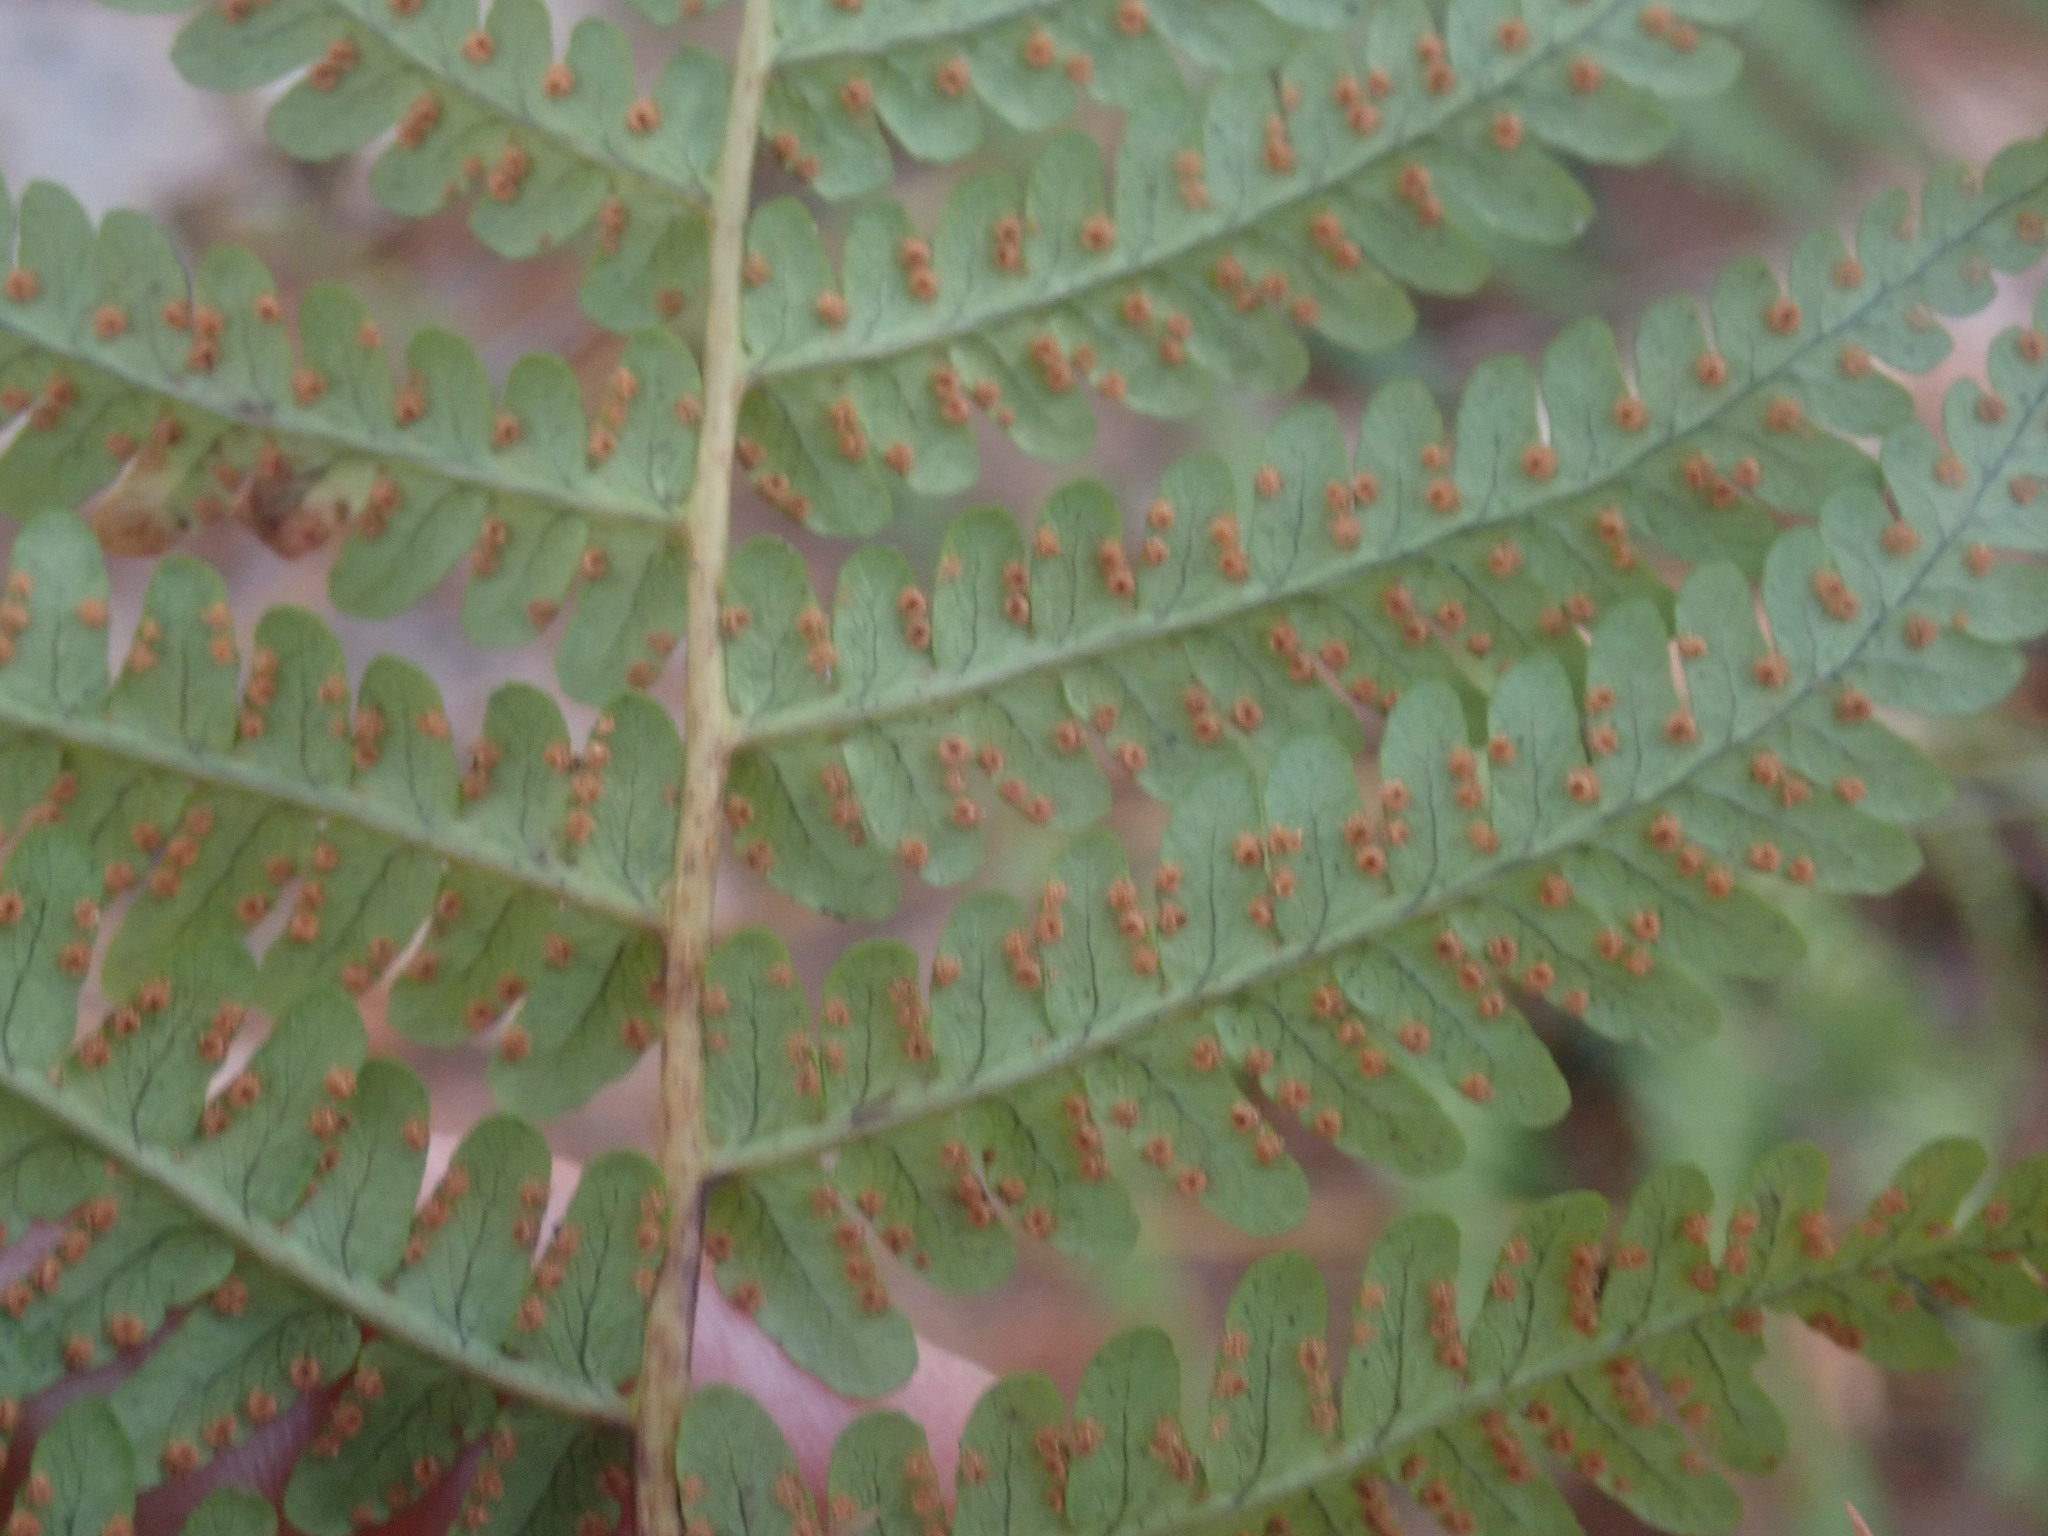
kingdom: Plantae
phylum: Tracheophyta
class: Polypodiopsida
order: Polypodiales
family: Dryopteridaceae
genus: Dryopteris
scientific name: Dryopteris marginalis
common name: Marginal wood fern
